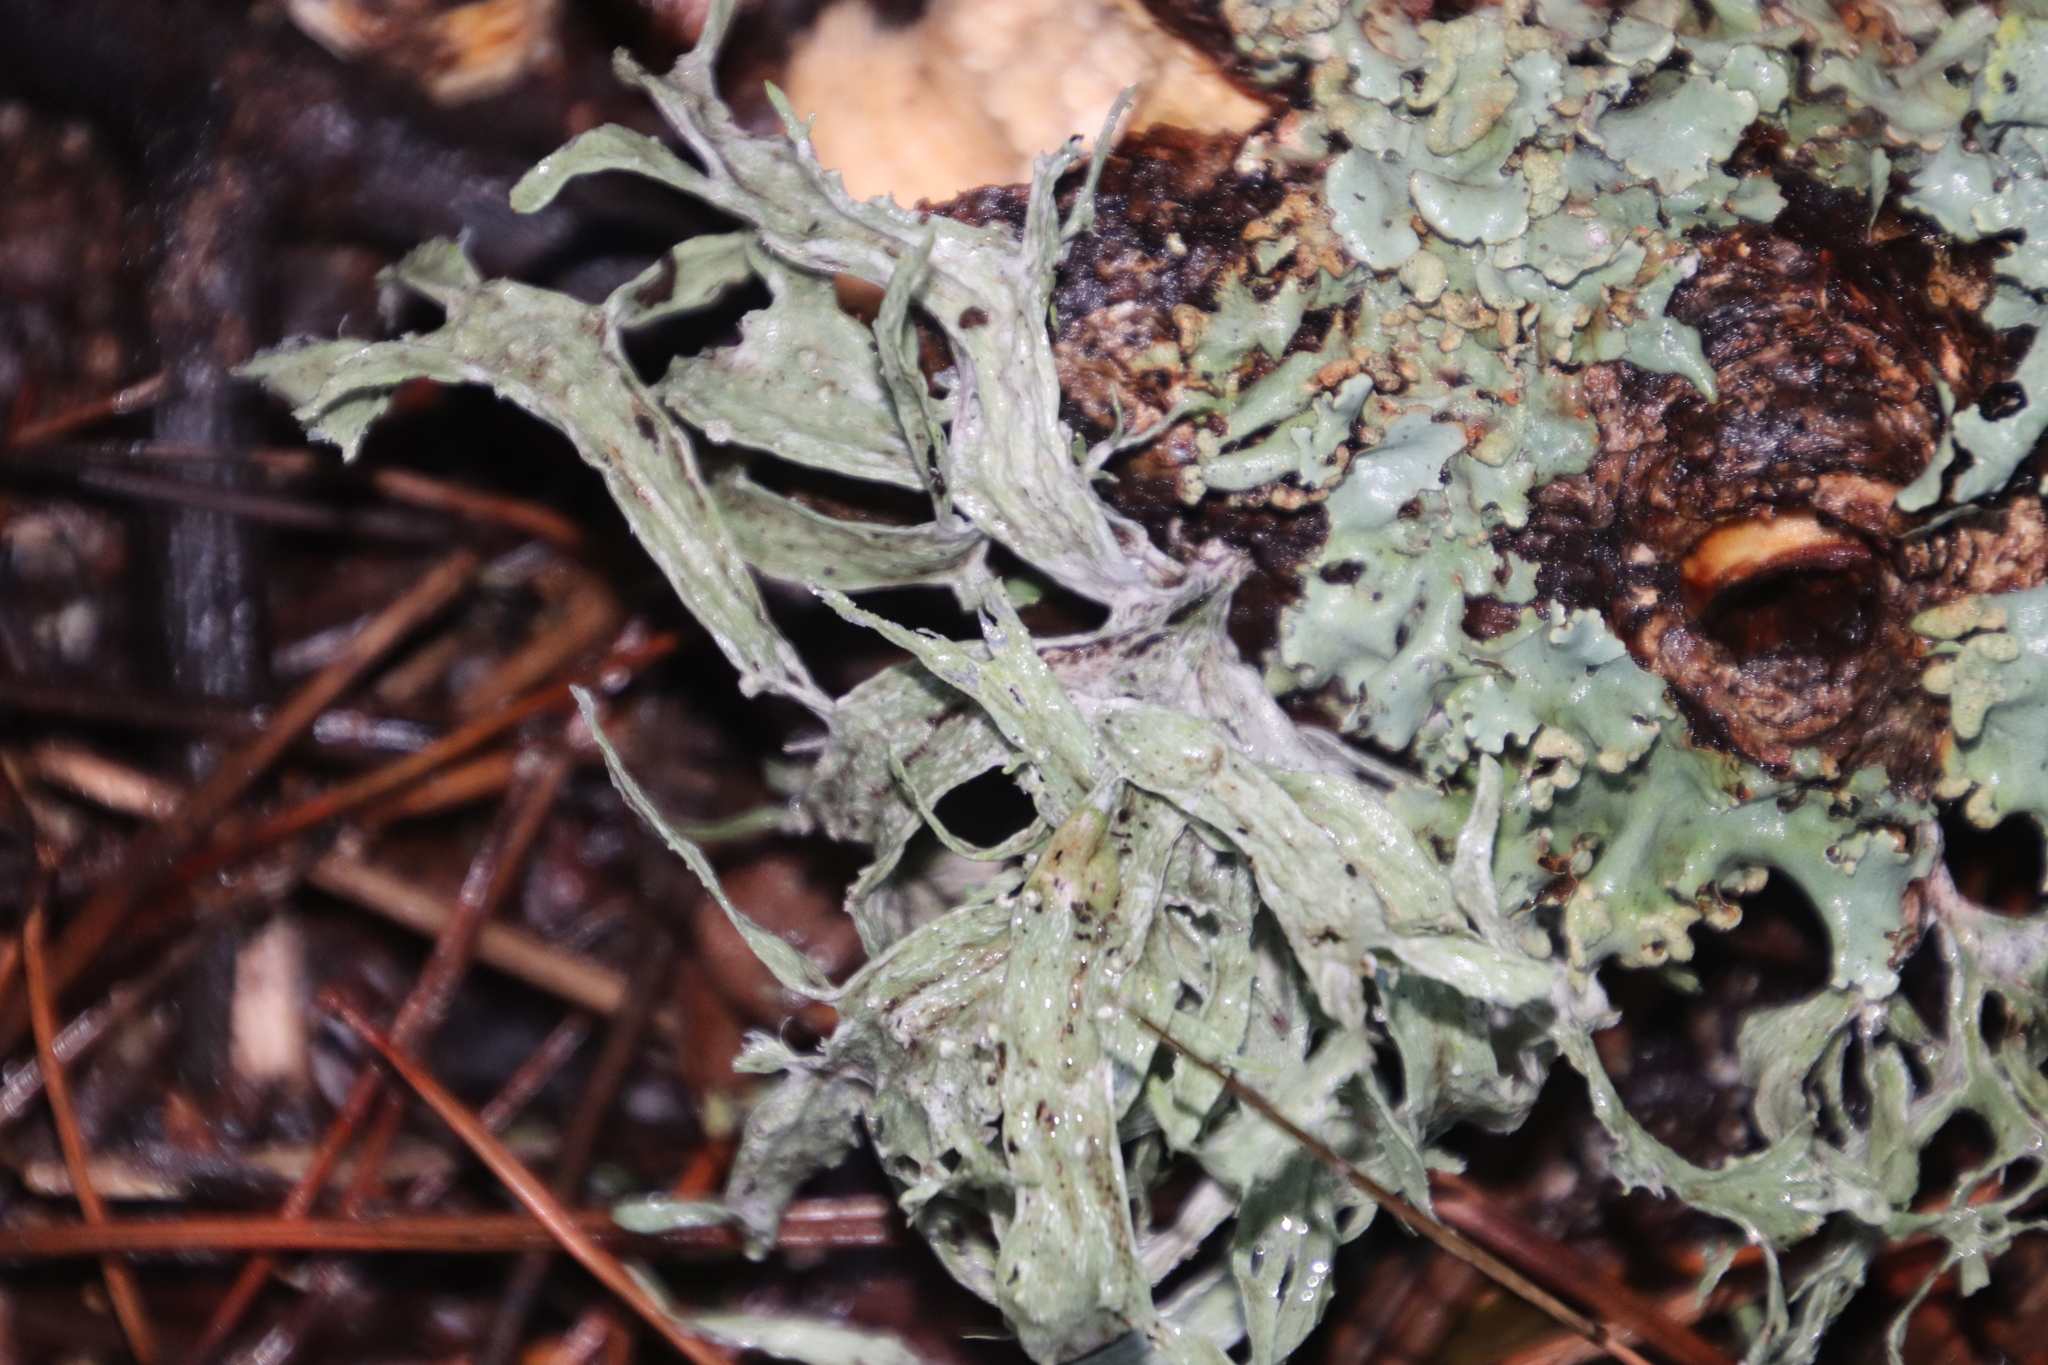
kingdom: Fungi
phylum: Ascomycota
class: Lecanoromycetes
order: Lecanorales
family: Ramalinaceae
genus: Ramalina
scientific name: Ramalina celastri
